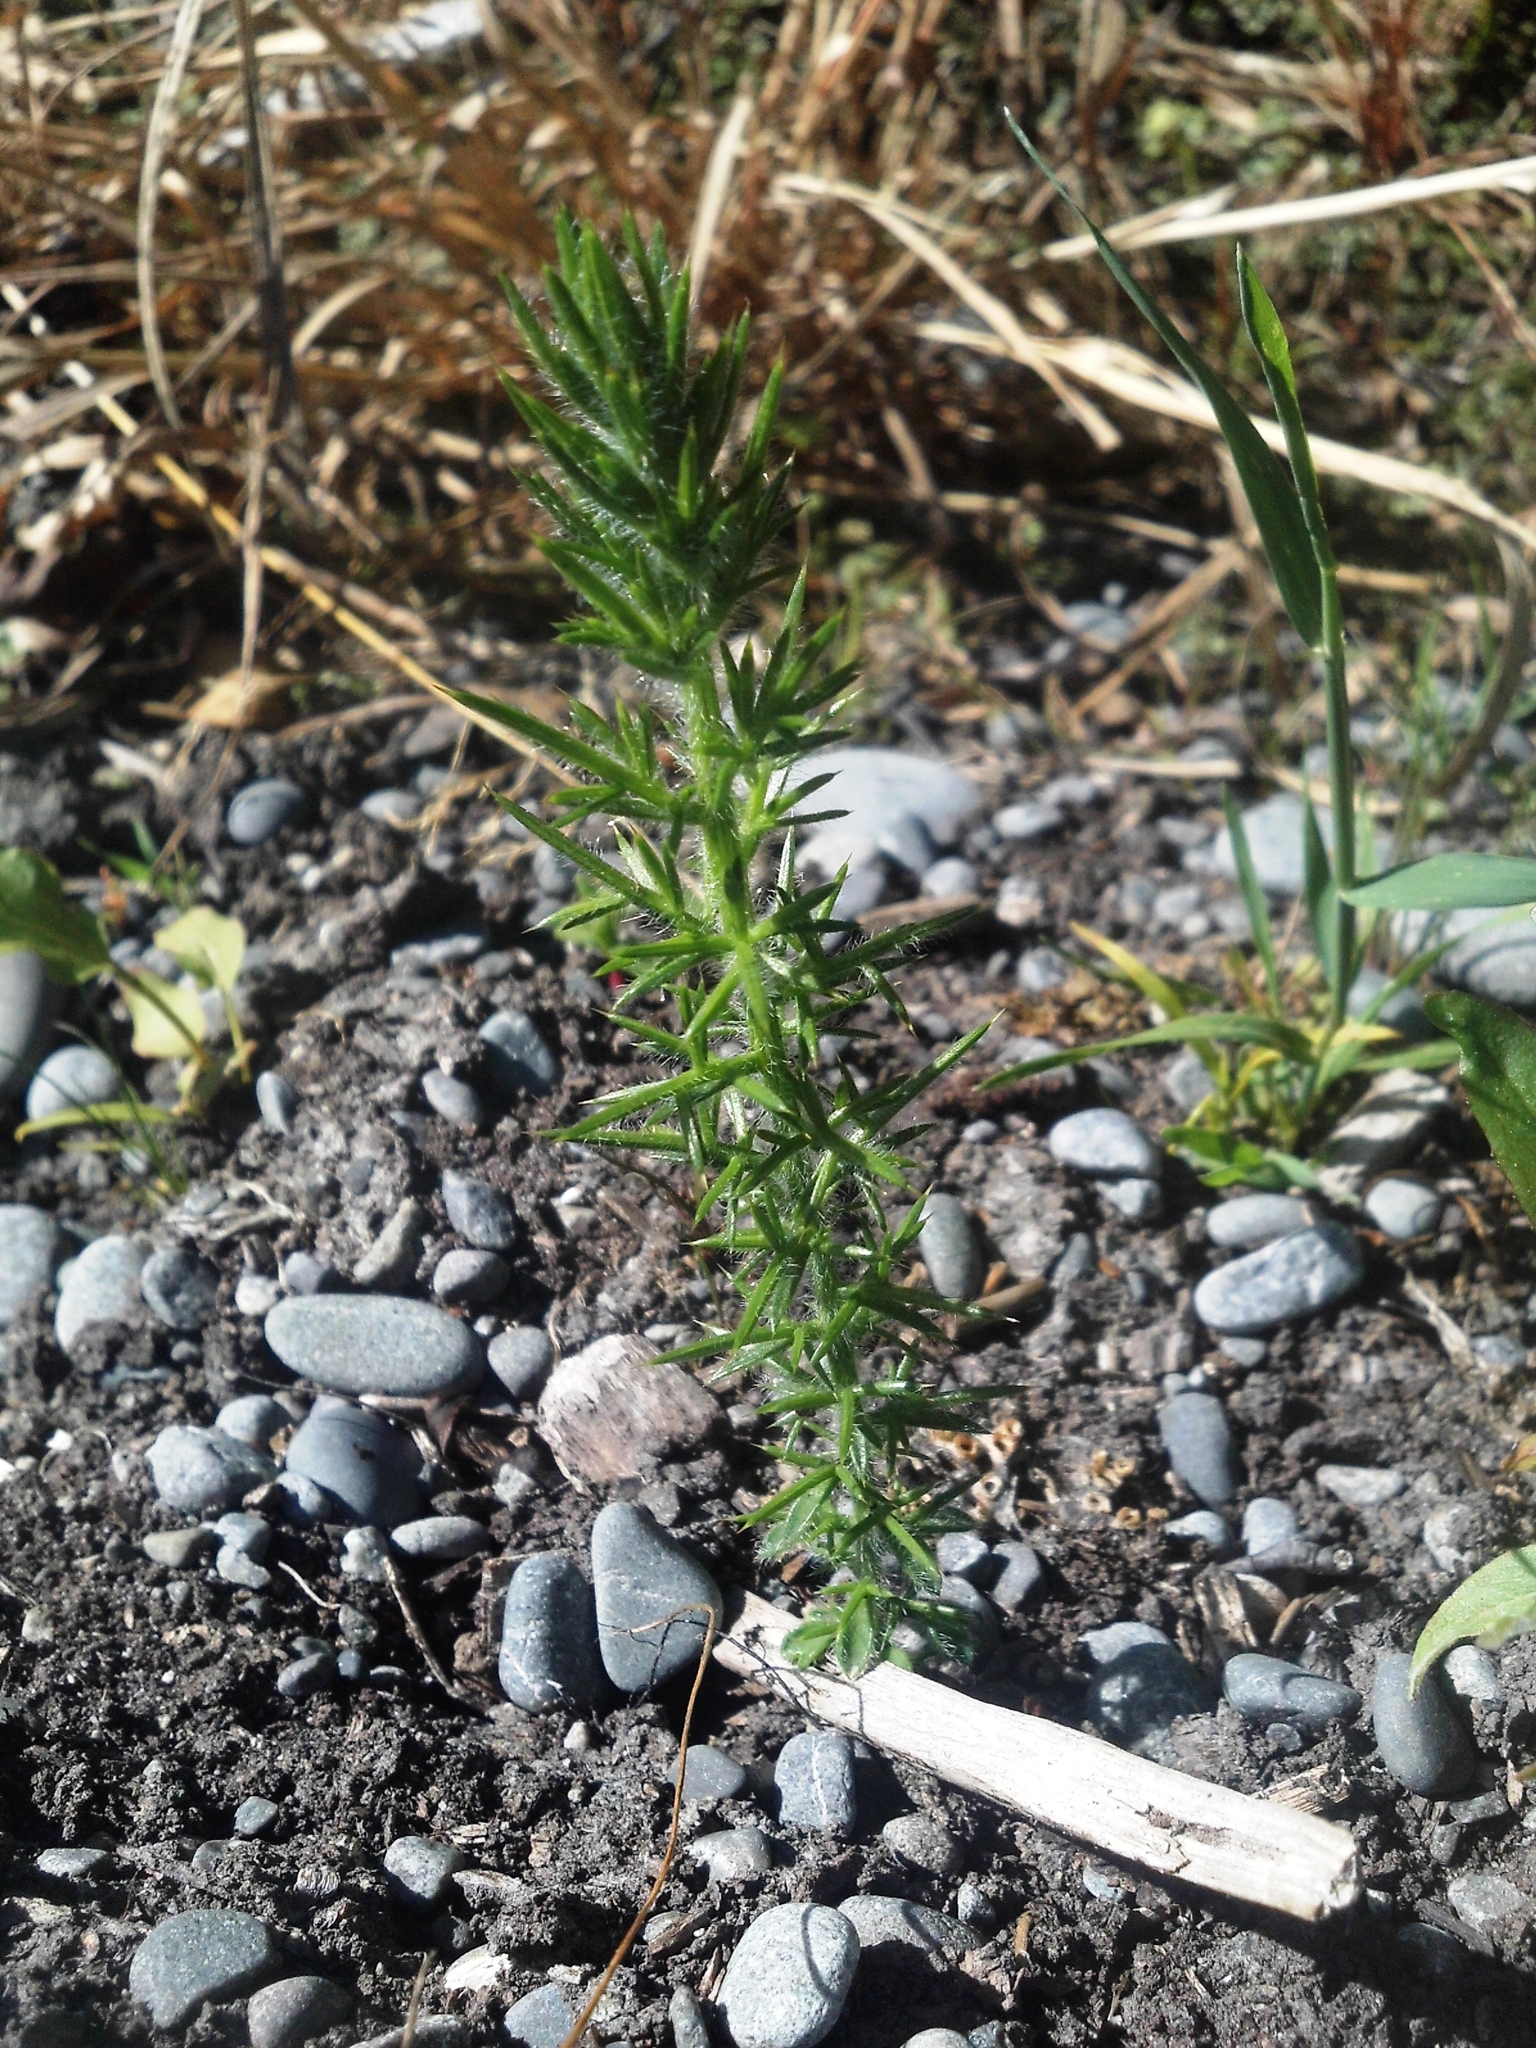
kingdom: Plantae
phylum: Tracheophyta
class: Magnoliopsida
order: Fabales
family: Fabaceae
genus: Ulex
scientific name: Ulex europaeus
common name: Common gorse
